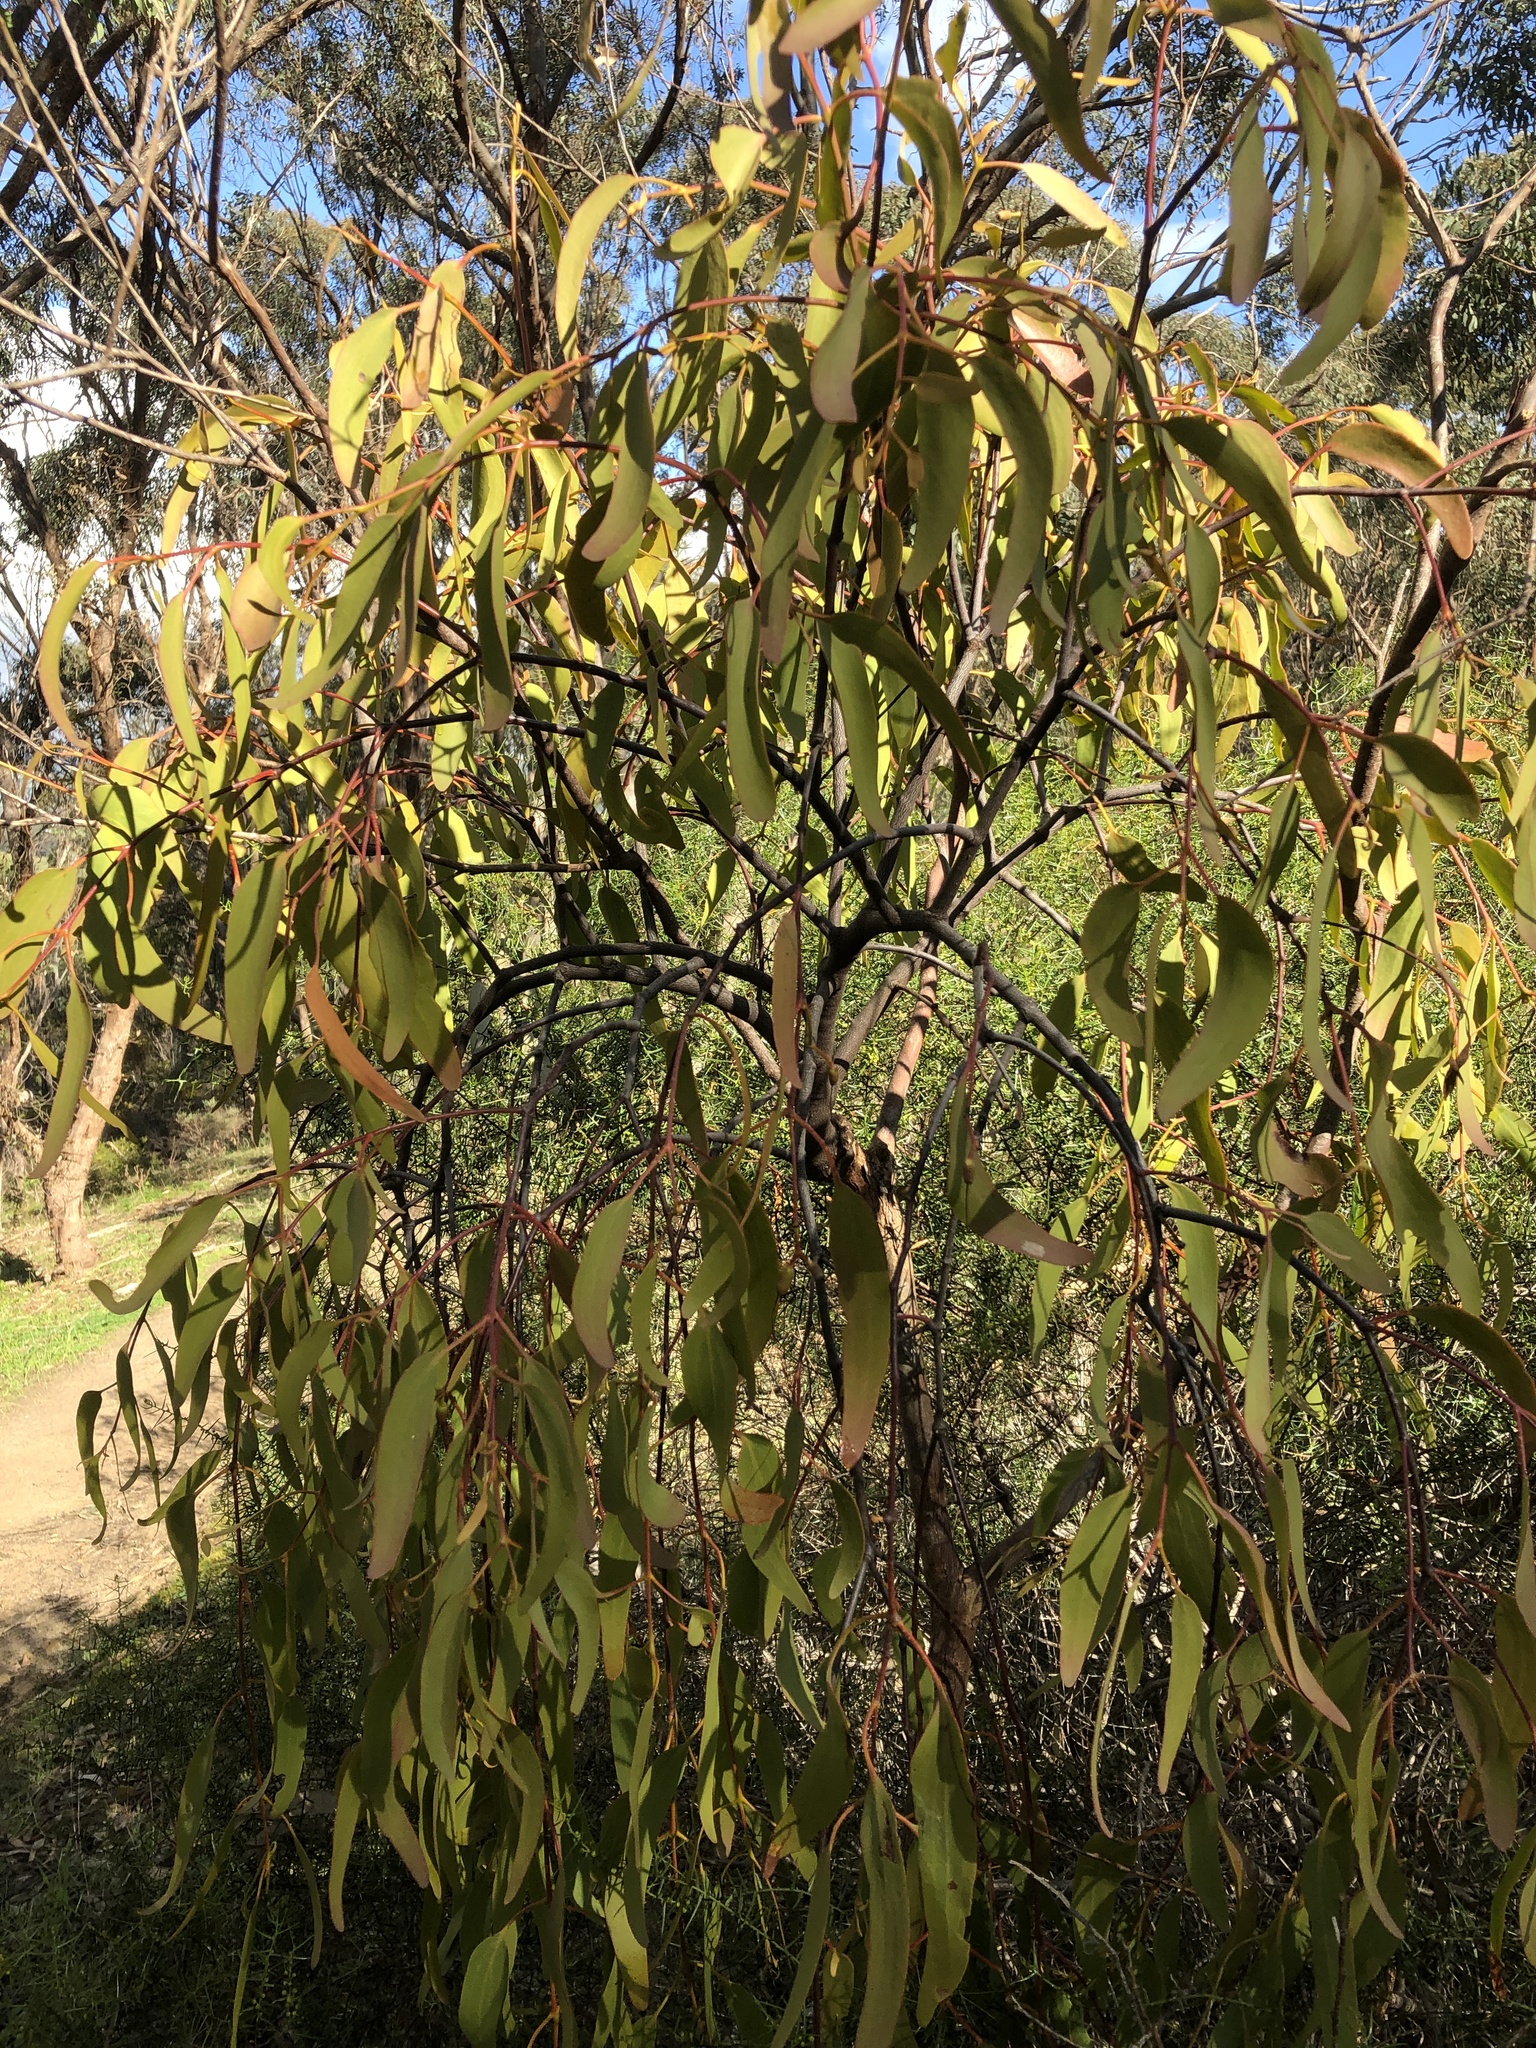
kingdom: Plantae
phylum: Tracheophyta
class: Magnoliopsida
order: Santalales
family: Loranthaceae
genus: Amyema
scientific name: Amyema miquelii
